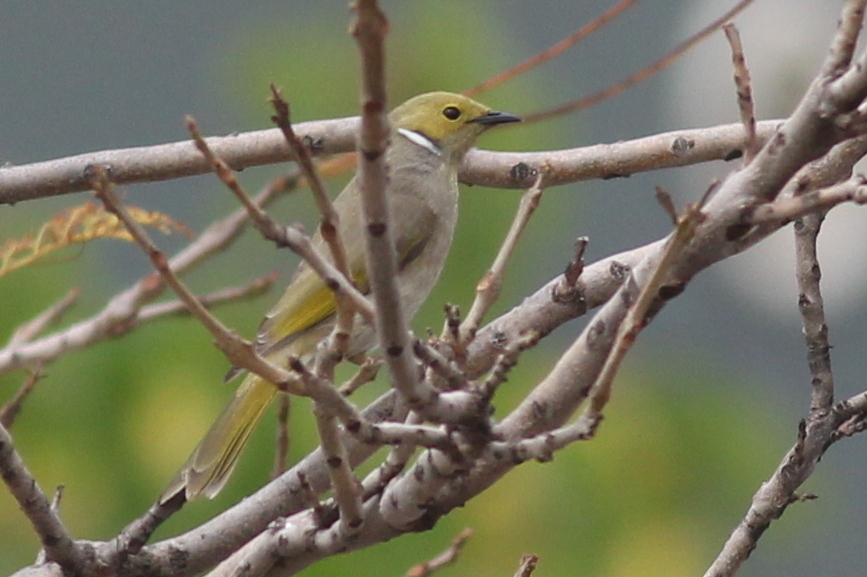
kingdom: Animalia
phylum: Chordata
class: Aves
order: Passeriformes
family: Meliphagidae
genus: Ptilotula
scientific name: Ptilotula penicillata
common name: White-plumed honeyeater
